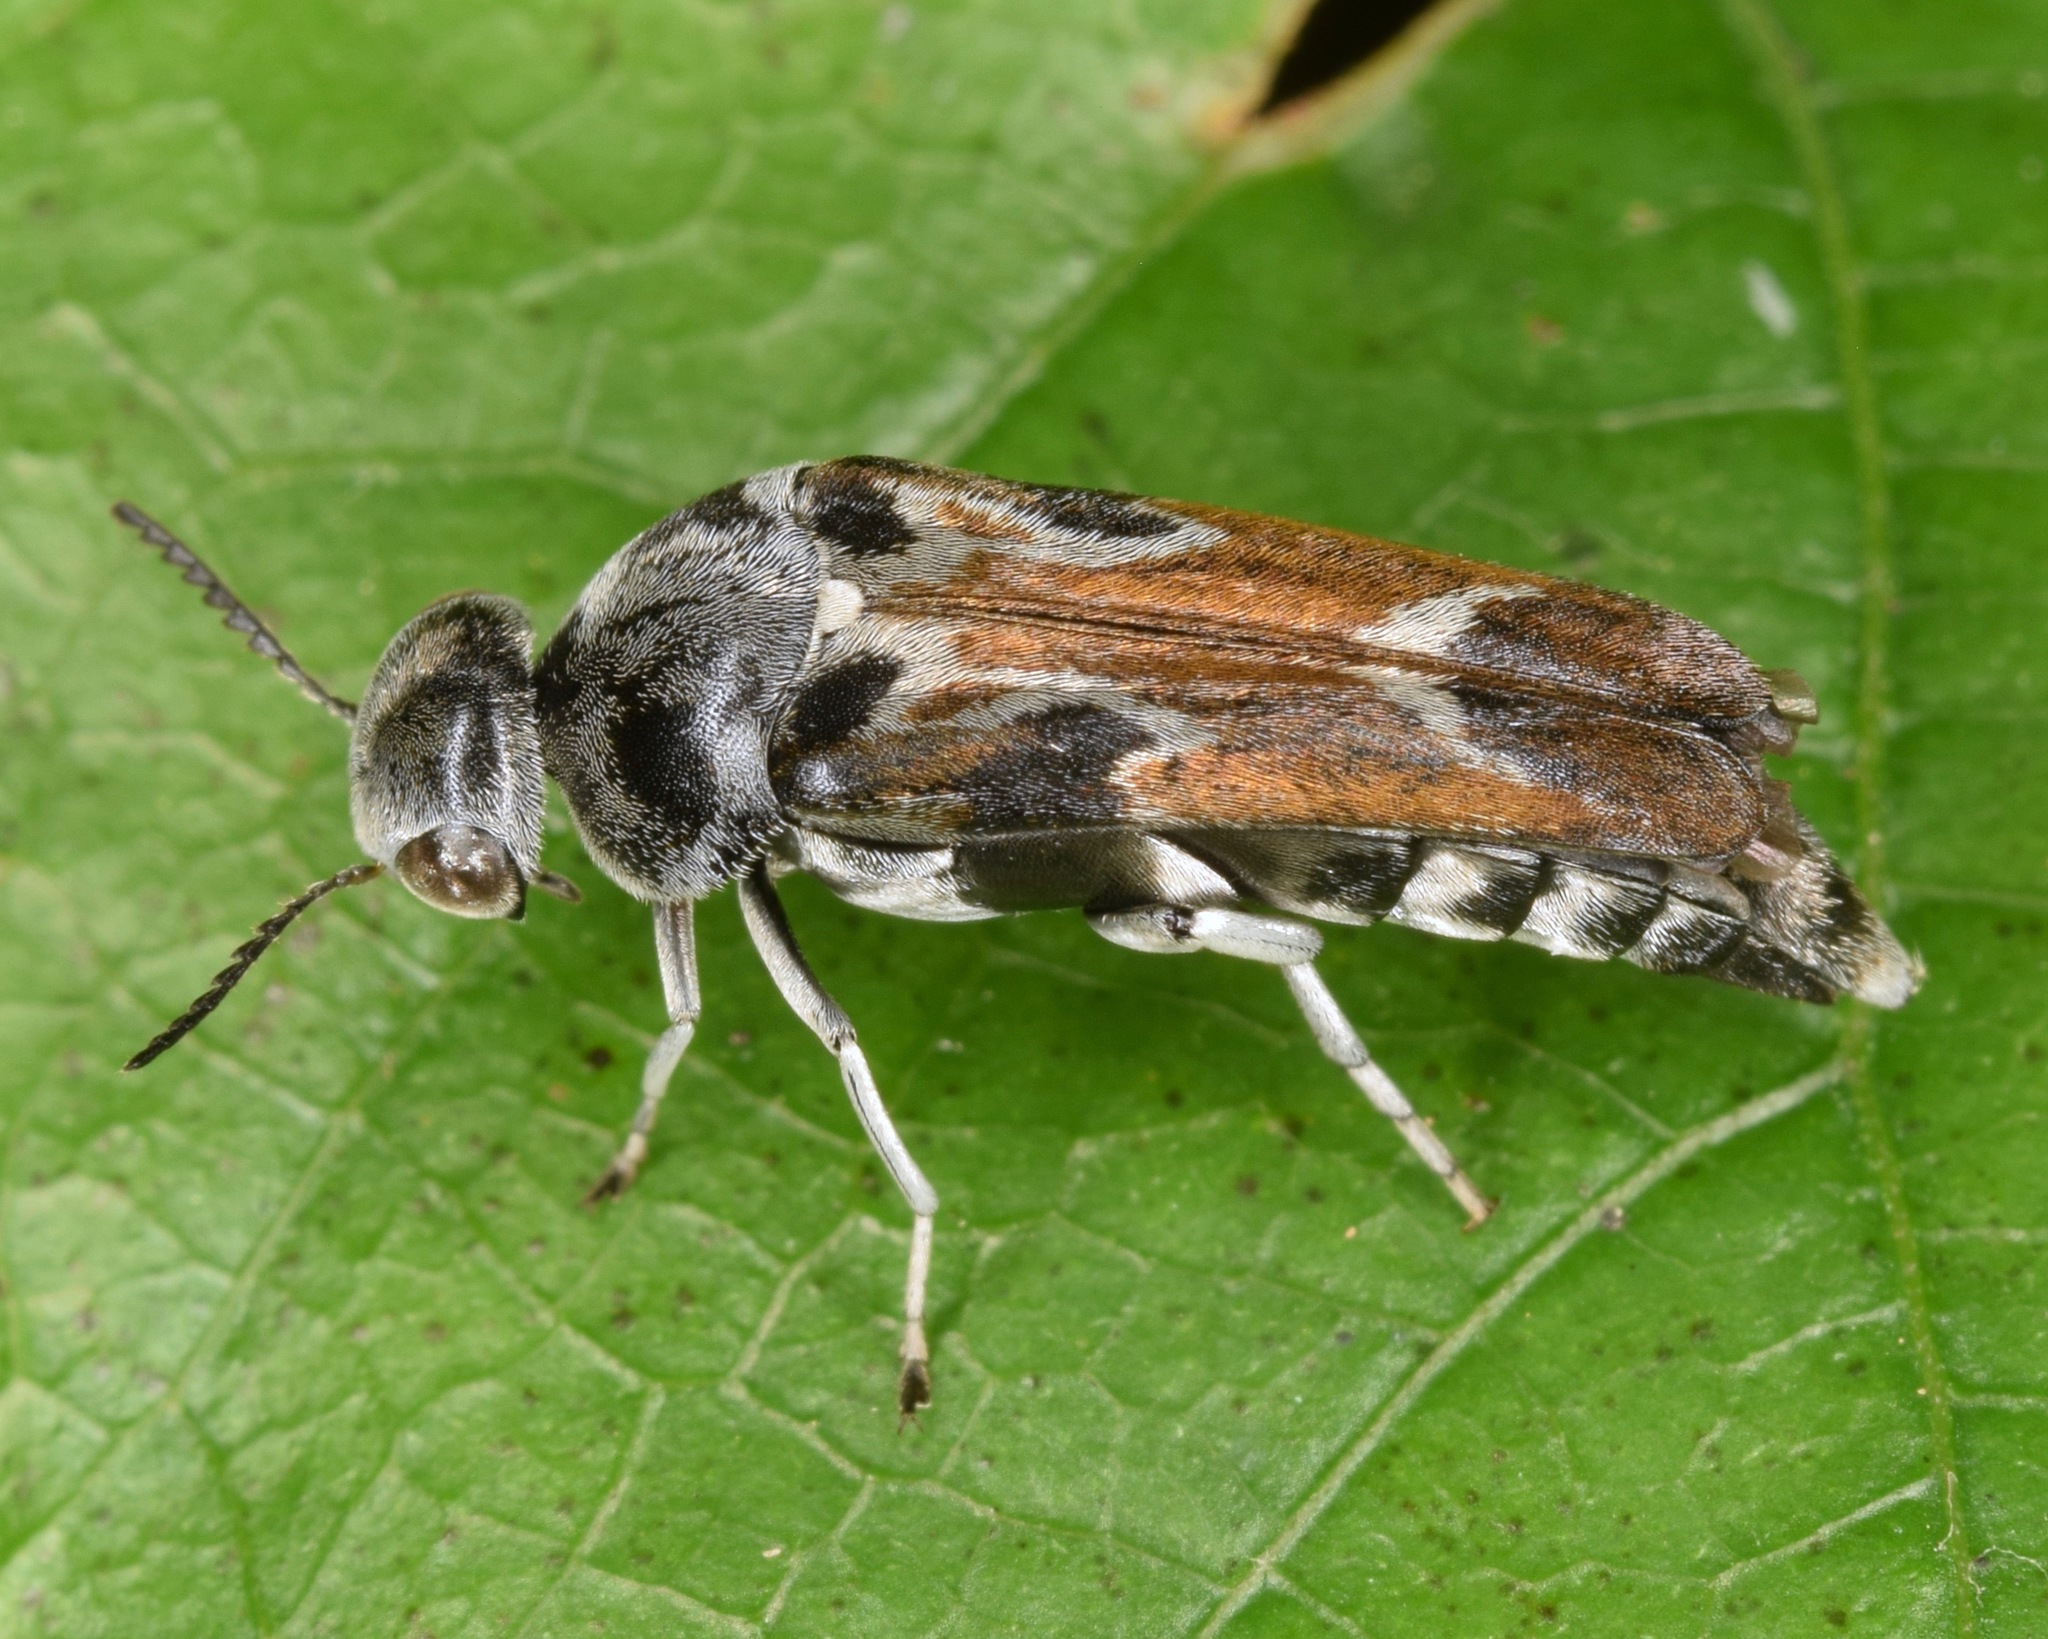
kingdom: Animalia
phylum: Arthropoda
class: Insecta
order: Coleoptera
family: Mordellidae
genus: Glipa
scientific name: Glipa hilaris
